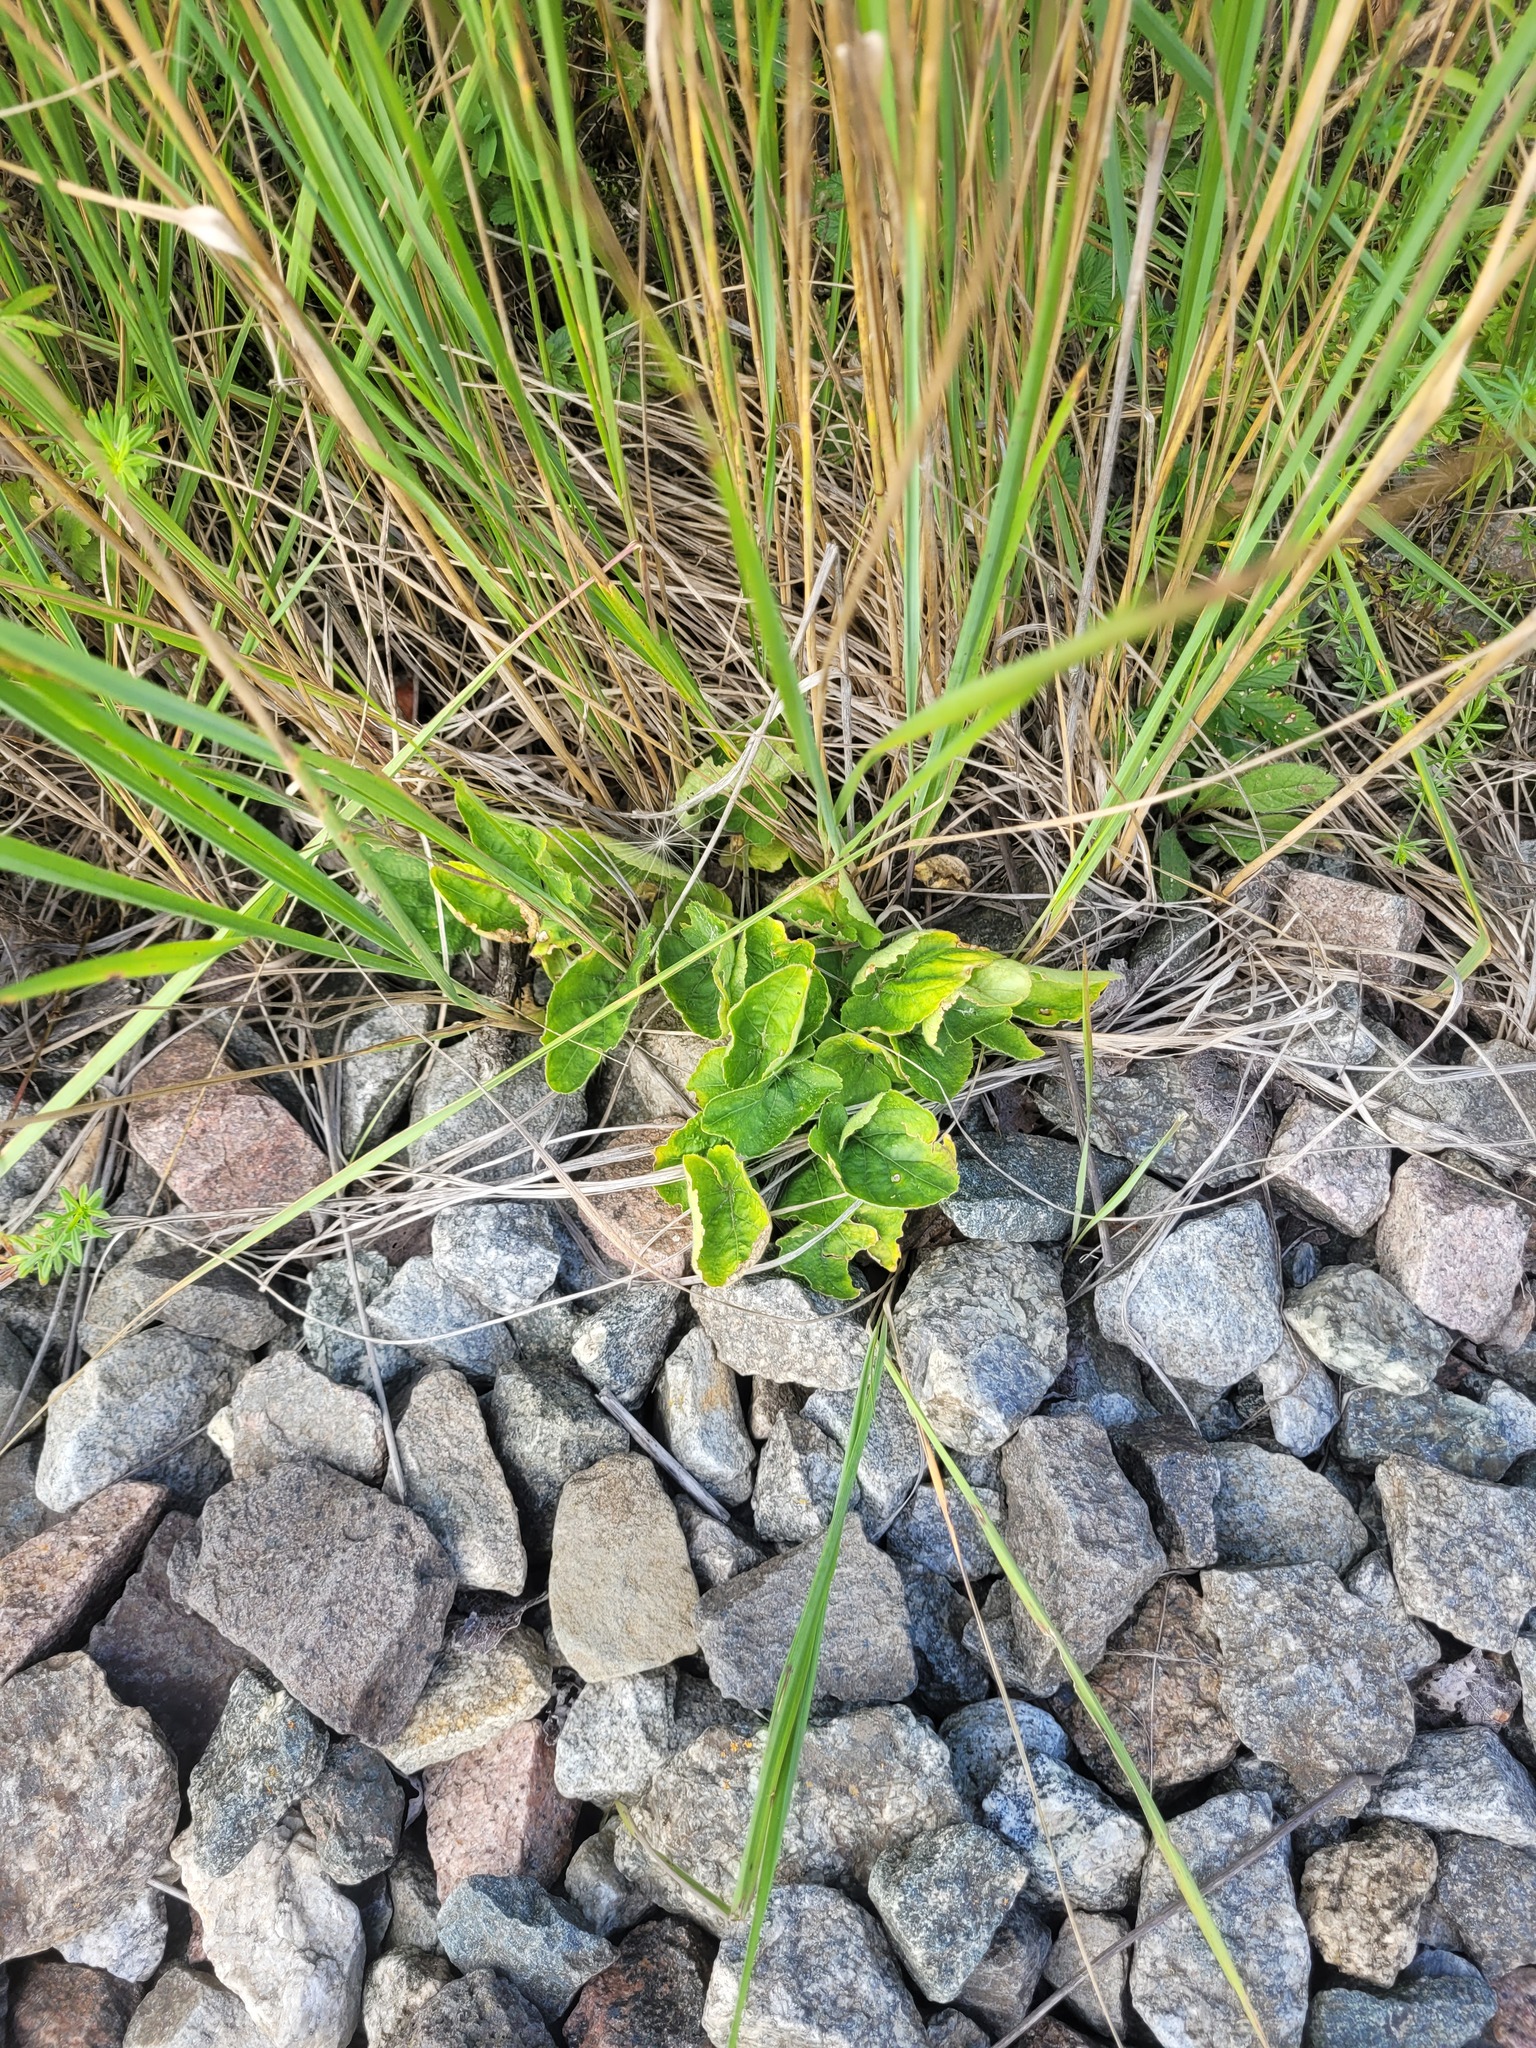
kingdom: Plantae
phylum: Tracheophyta
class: Magnoliopsida
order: Malpighiales
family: Violaceae
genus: Viola
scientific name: Viola hirta
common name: Hairy violet
